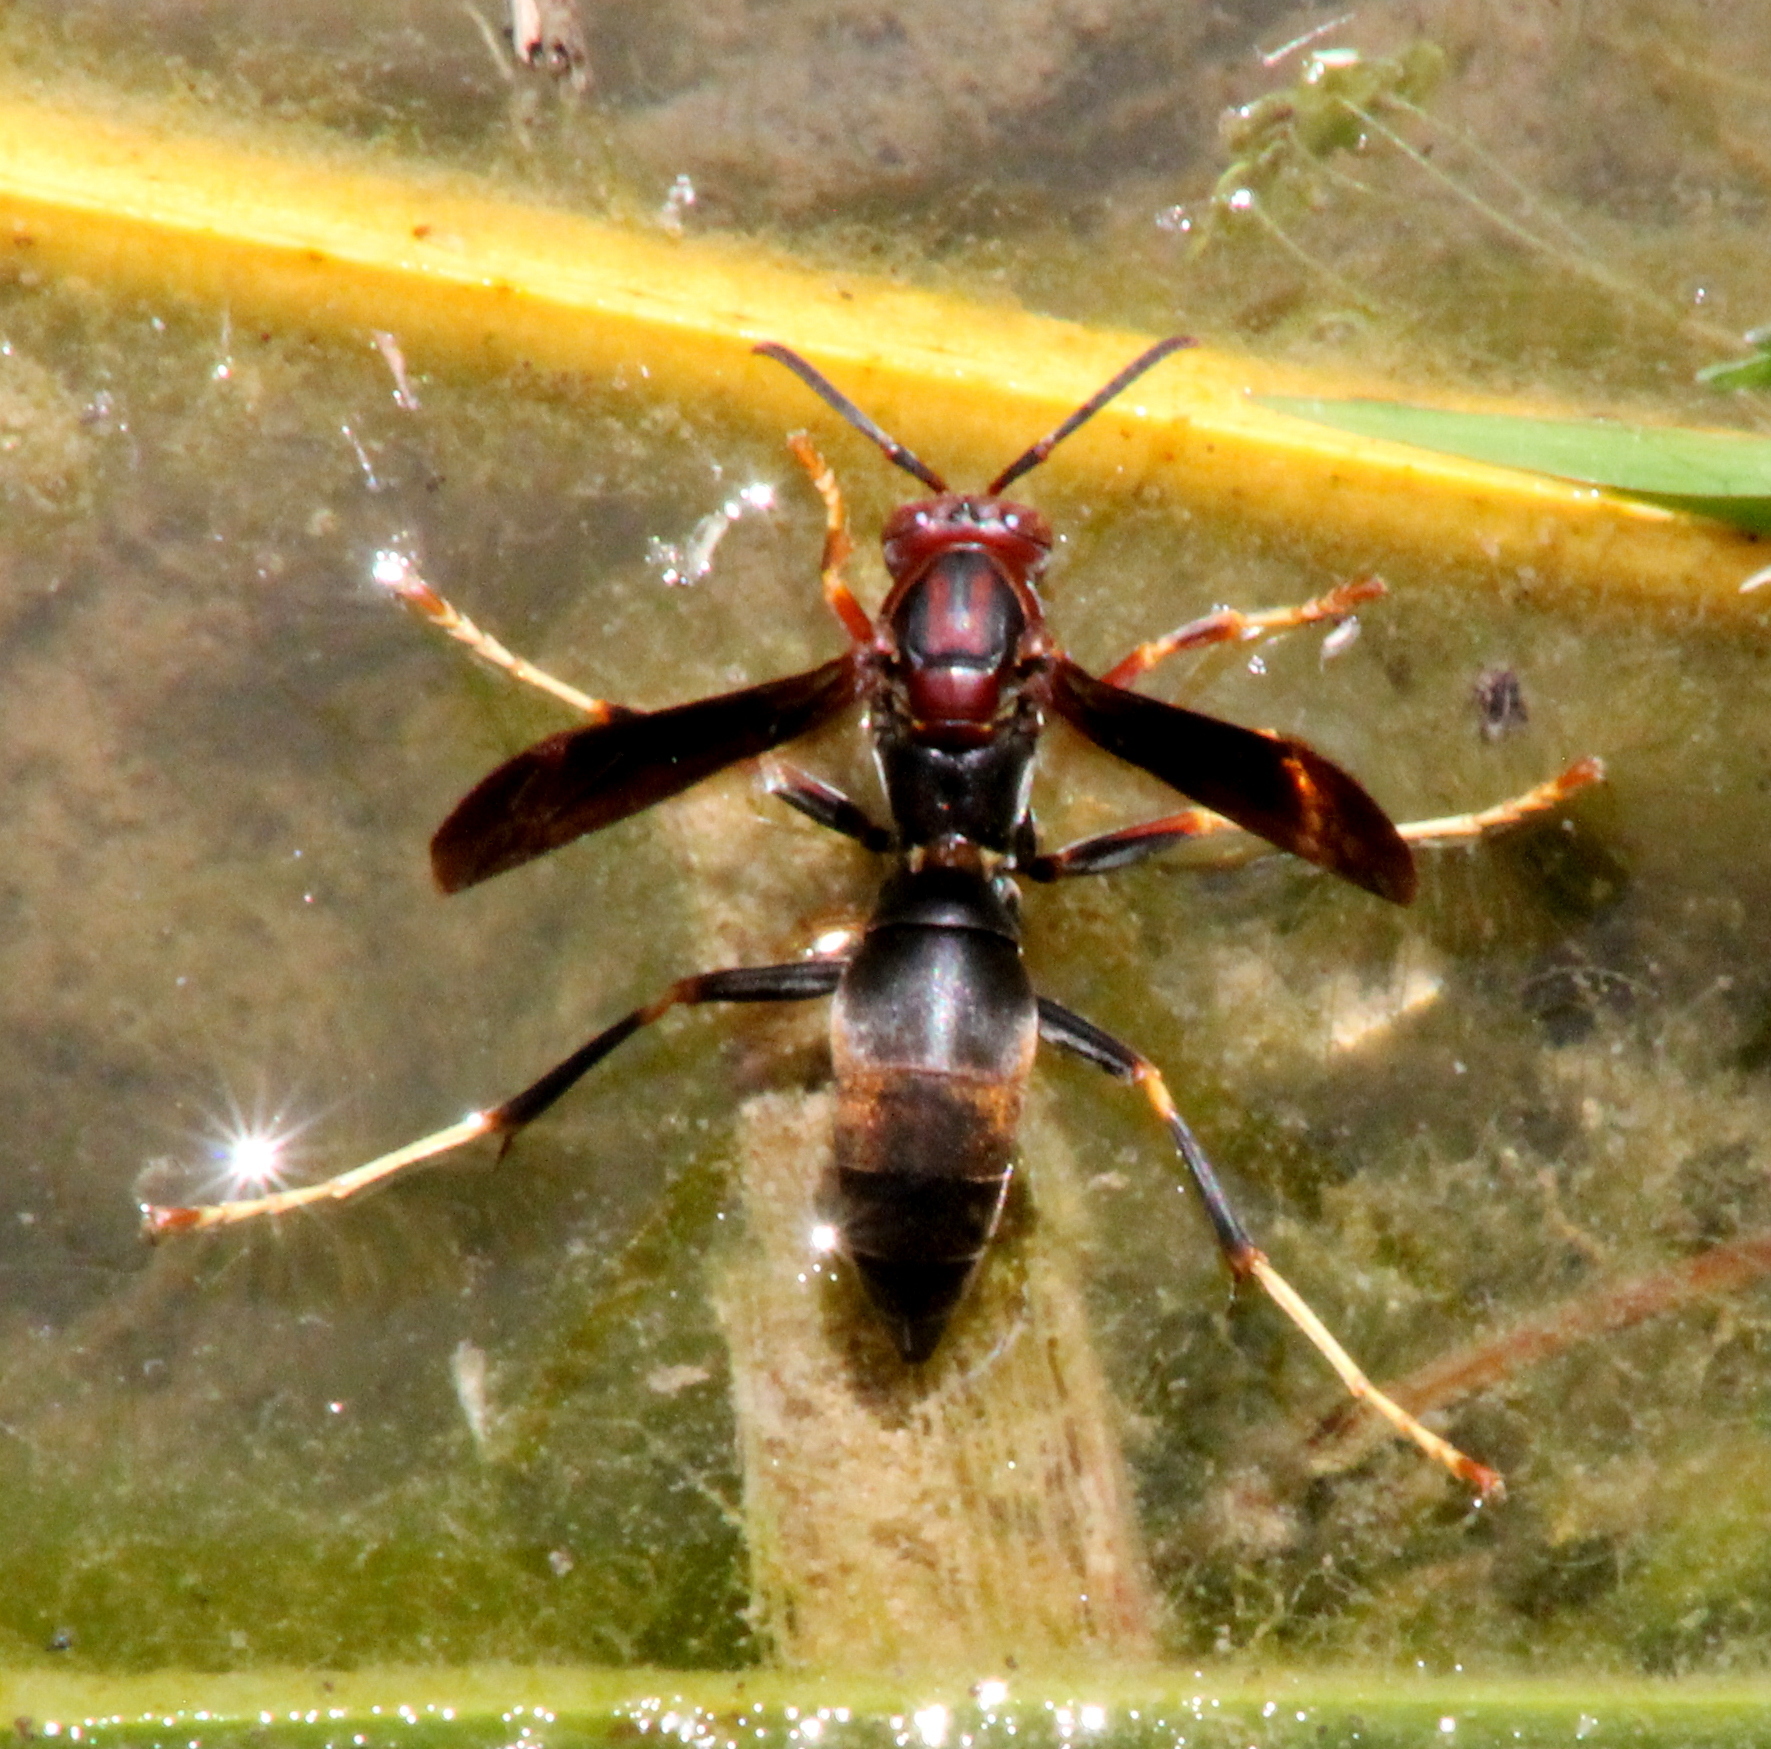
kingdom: Animalia
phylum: Arthropoda
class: Insecta
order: Hymenoptera
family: Eumenidae
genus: Polistes
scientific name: Polistes metricus
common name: Metric paper wasp
